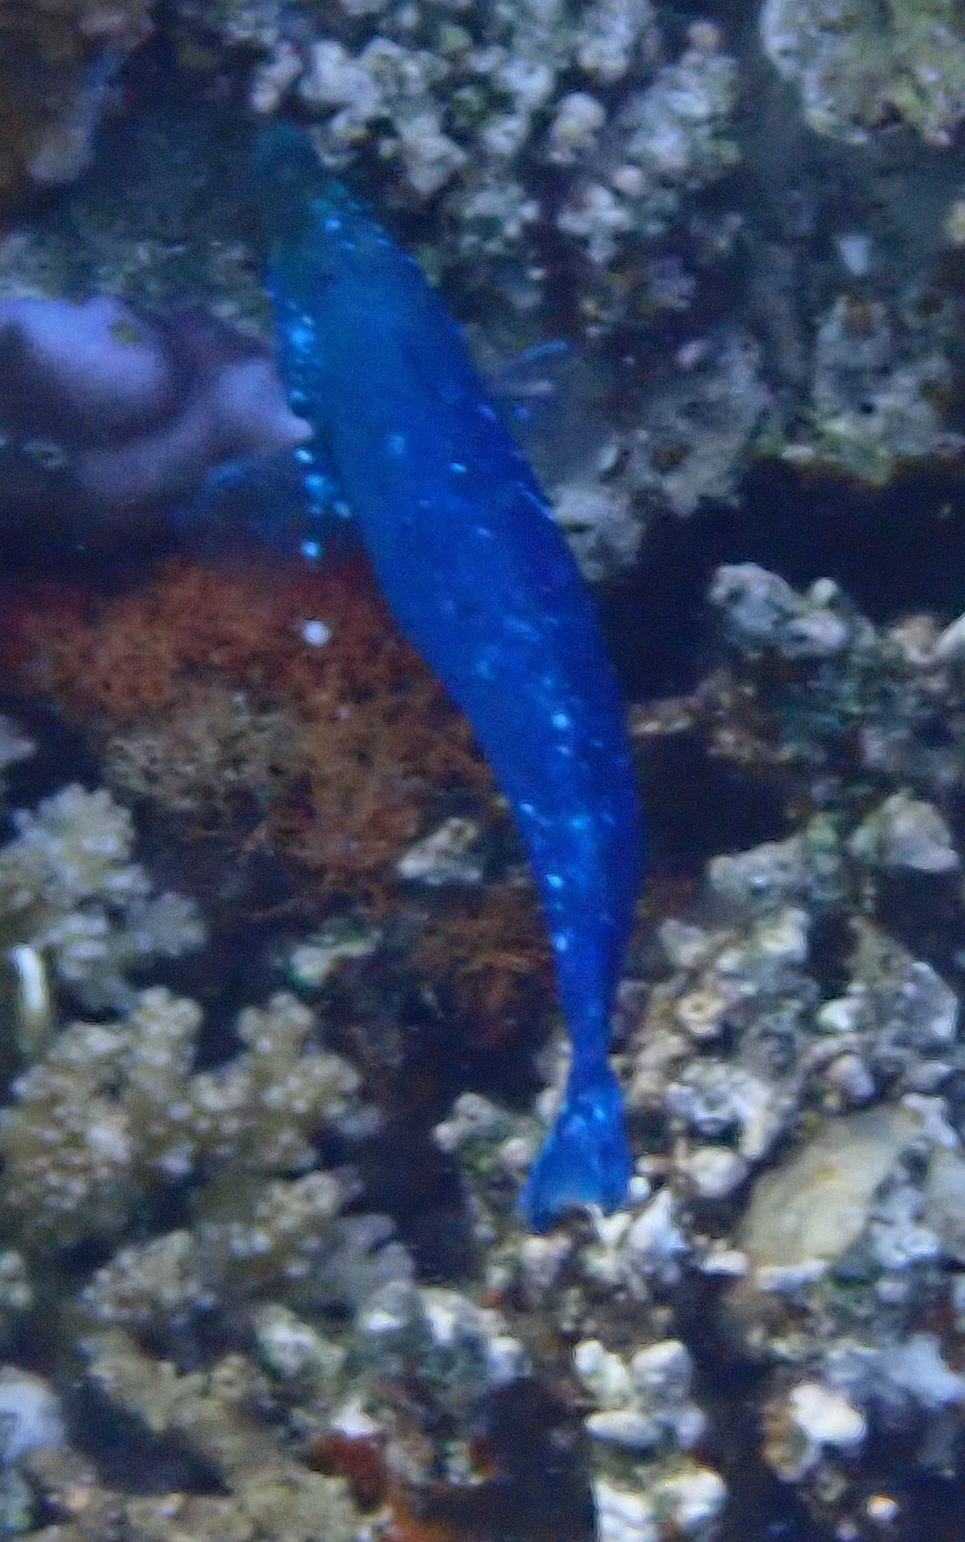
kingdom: Animalia
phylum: Chordata
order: Perciformes
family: Labridae
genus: Larabicus
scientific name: Larabicus quadrilineatus
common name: Fourline wrasse
